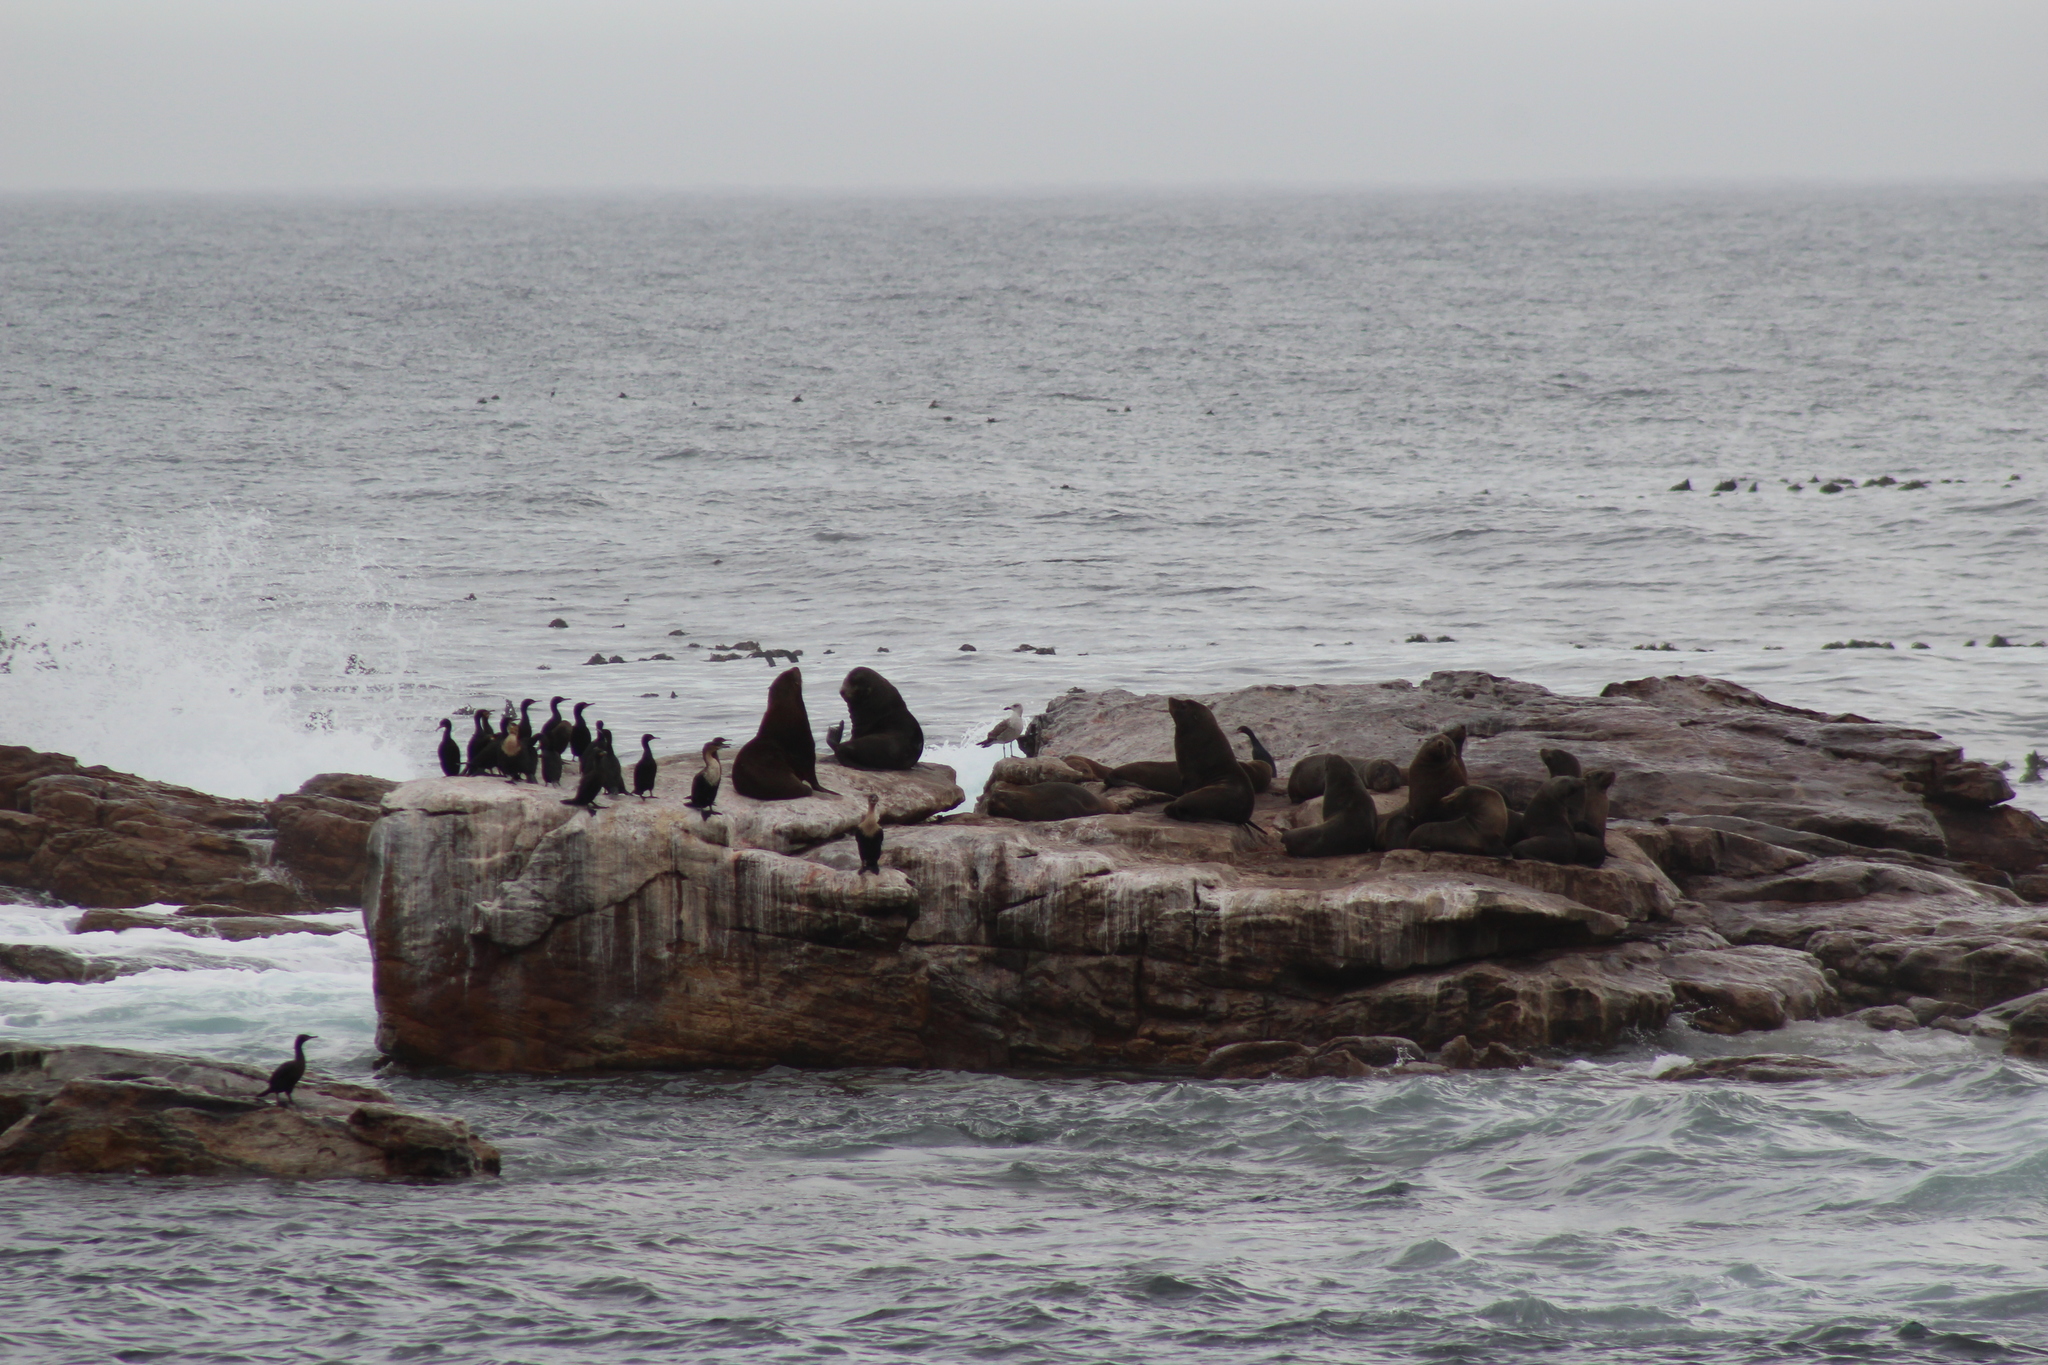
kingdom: Animalia
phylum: Chordata
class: Aves
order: Suliformes
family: Phalacrocoracidae
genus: Phalacrocorax
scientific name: Phalacrocorax carbo
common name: Great cormorant
